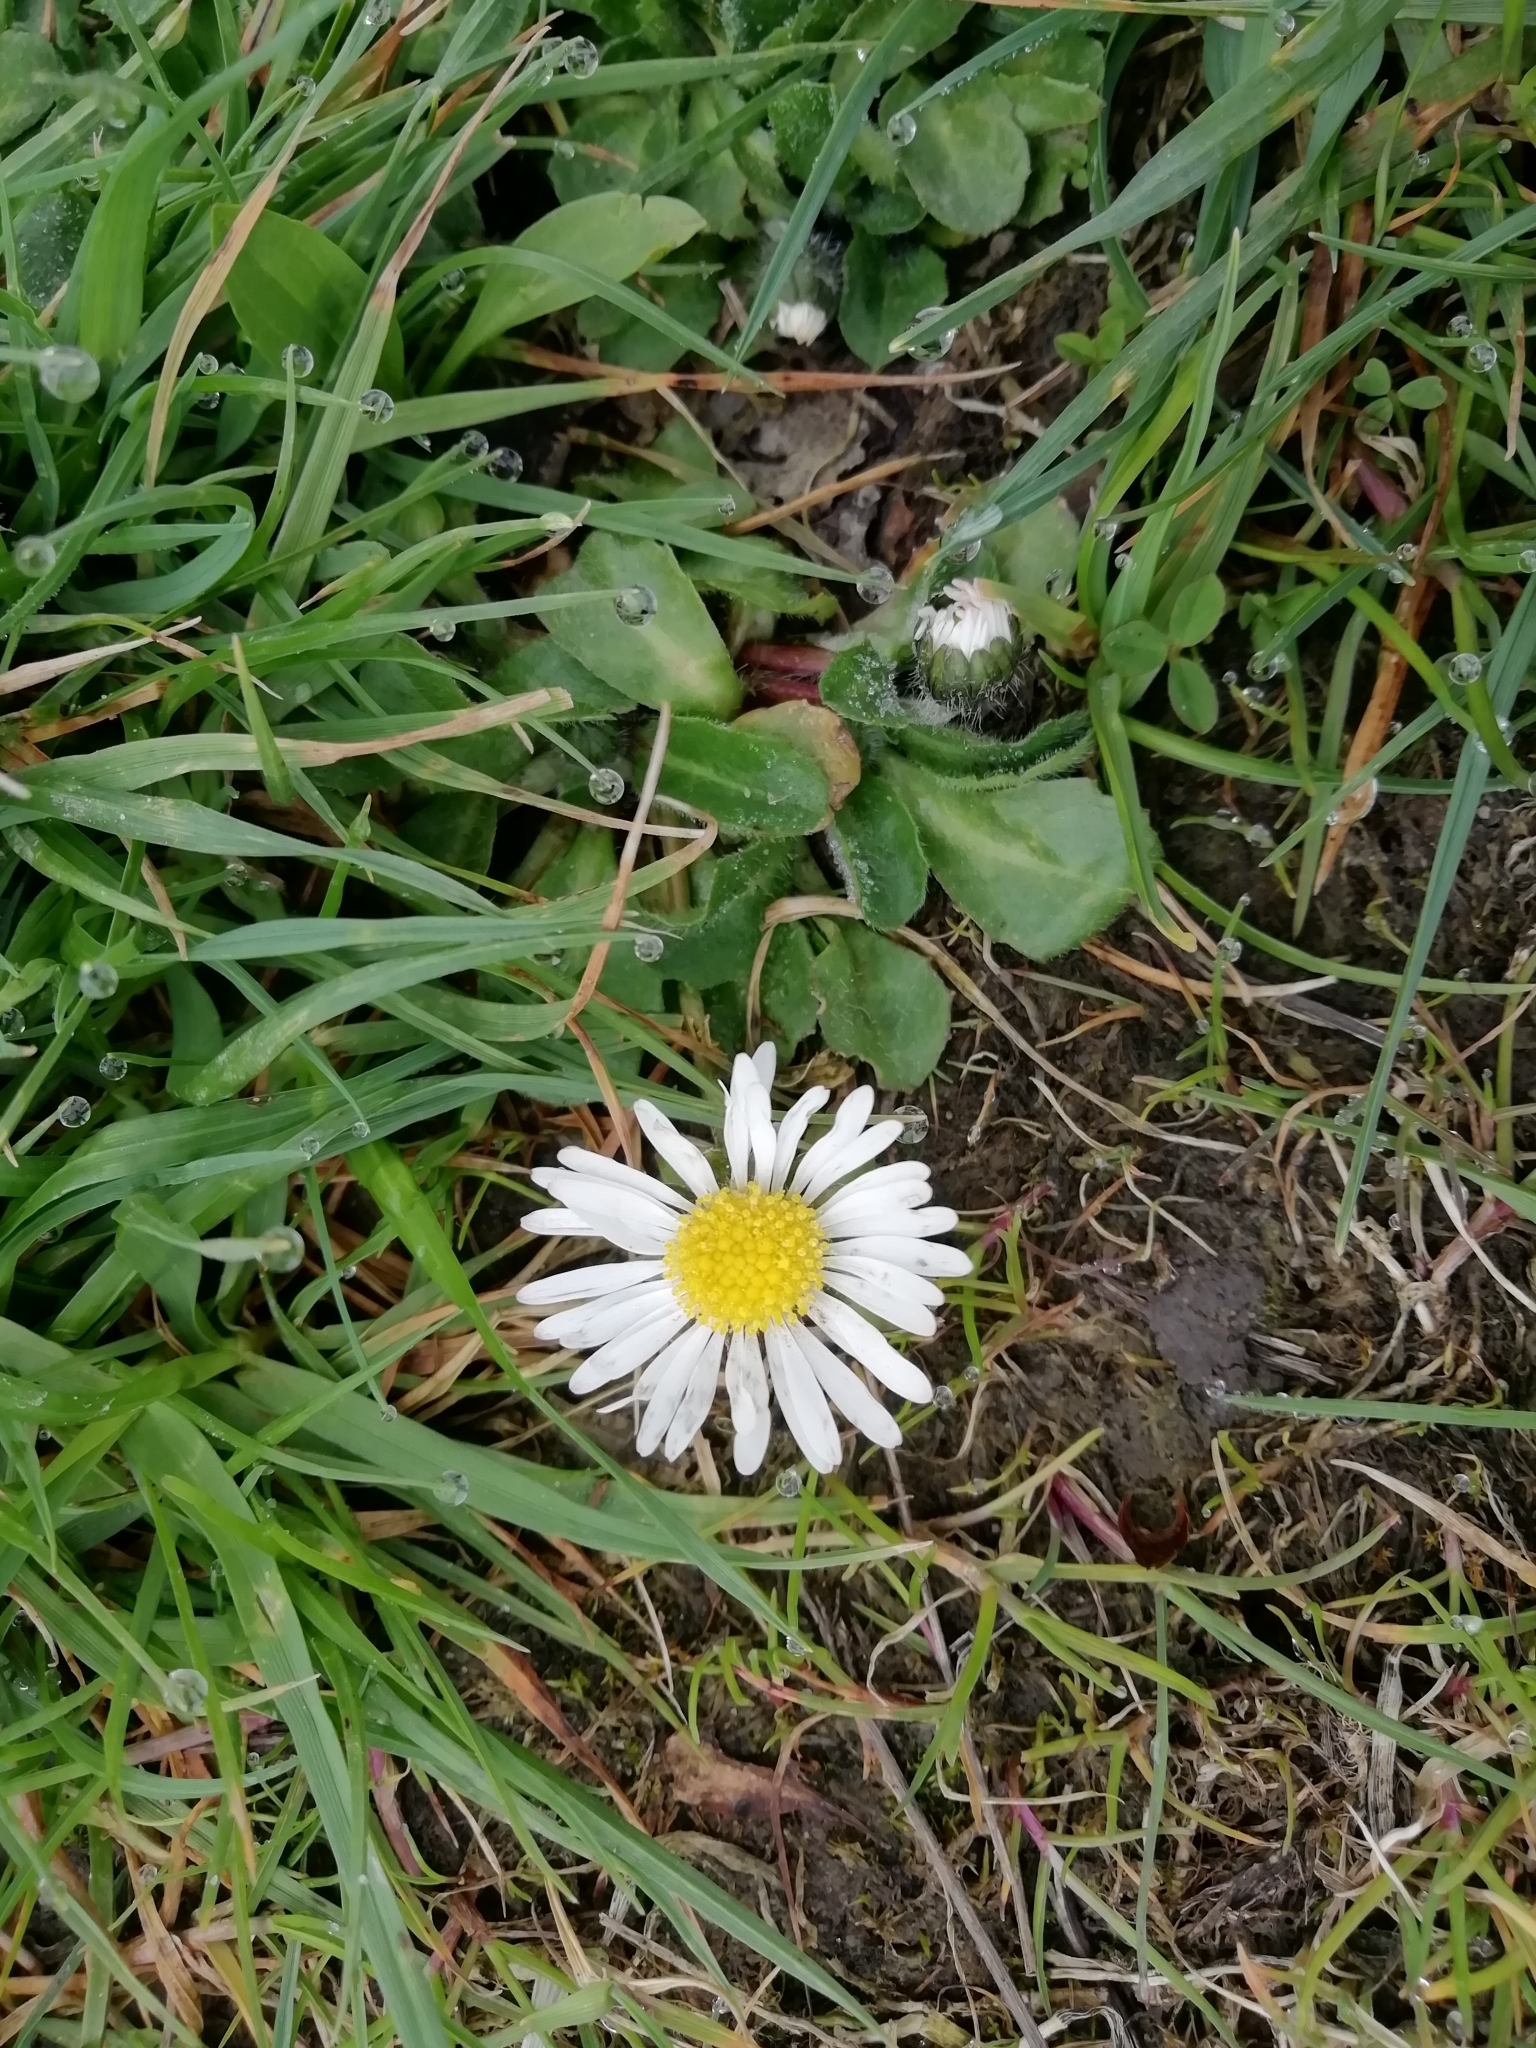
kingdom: Plantae
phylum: Tracheophyta
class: Magnoliopsida
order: Asterales
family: Asteraceae
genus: Bellis
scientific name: Bellis perennis
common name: Lawndaisy
